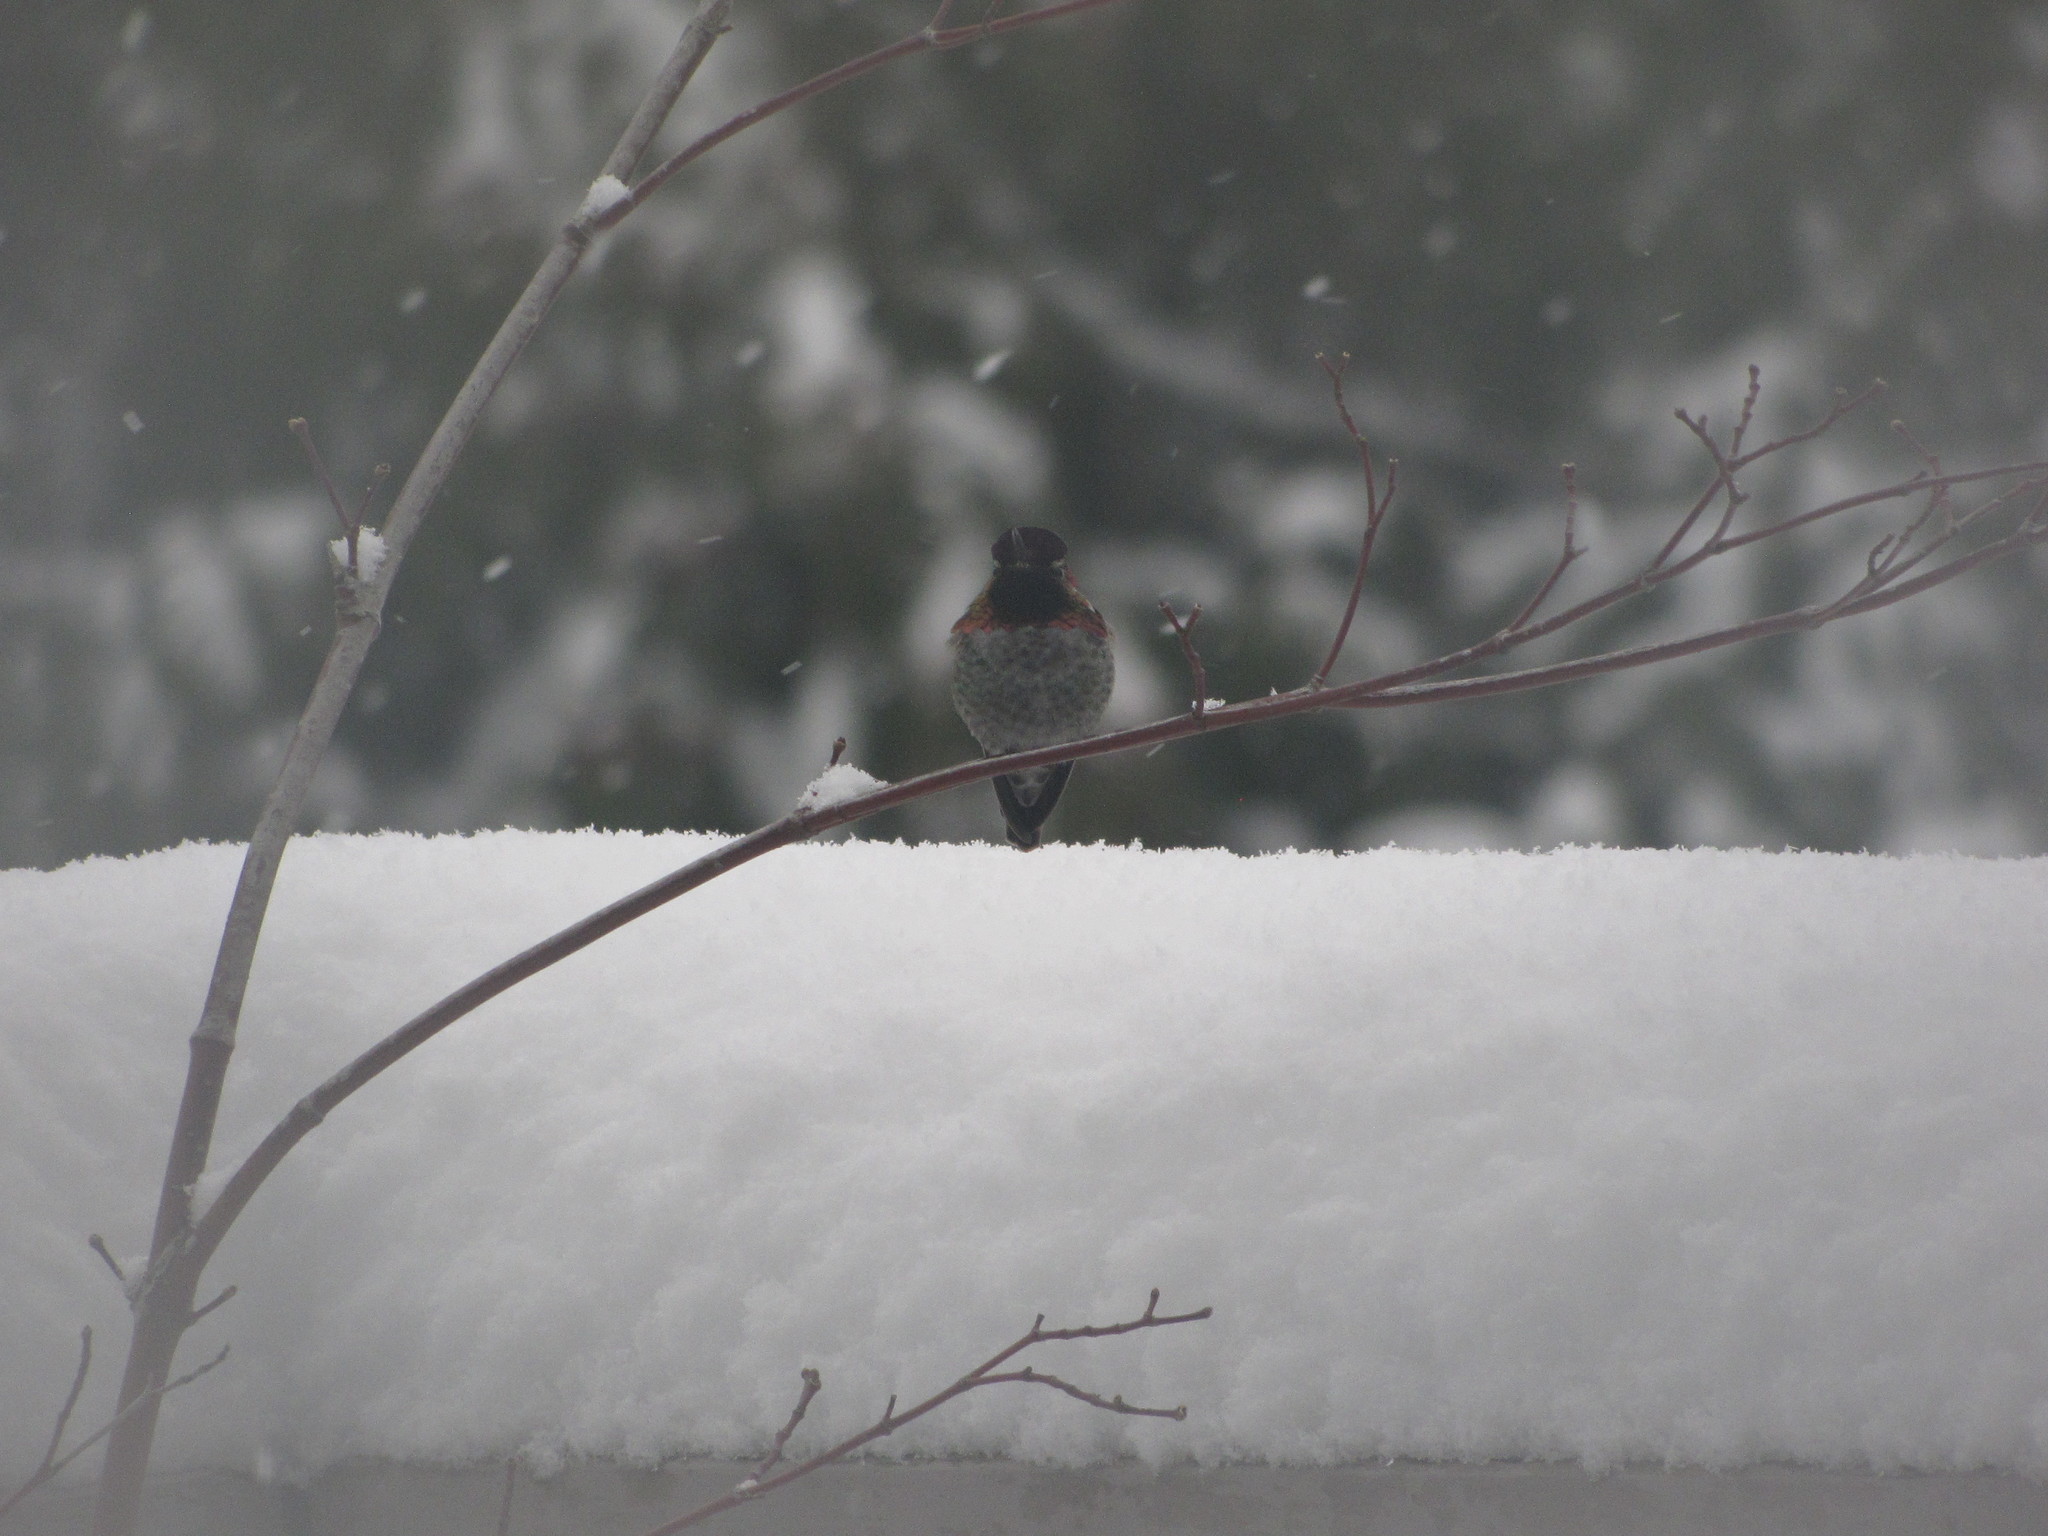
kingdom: Animalia
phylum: Chordata
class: Aves
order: Apodiformes
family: Trochilidae
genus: Calypte
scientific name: Calypte anna
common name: Anna's hummingbird
